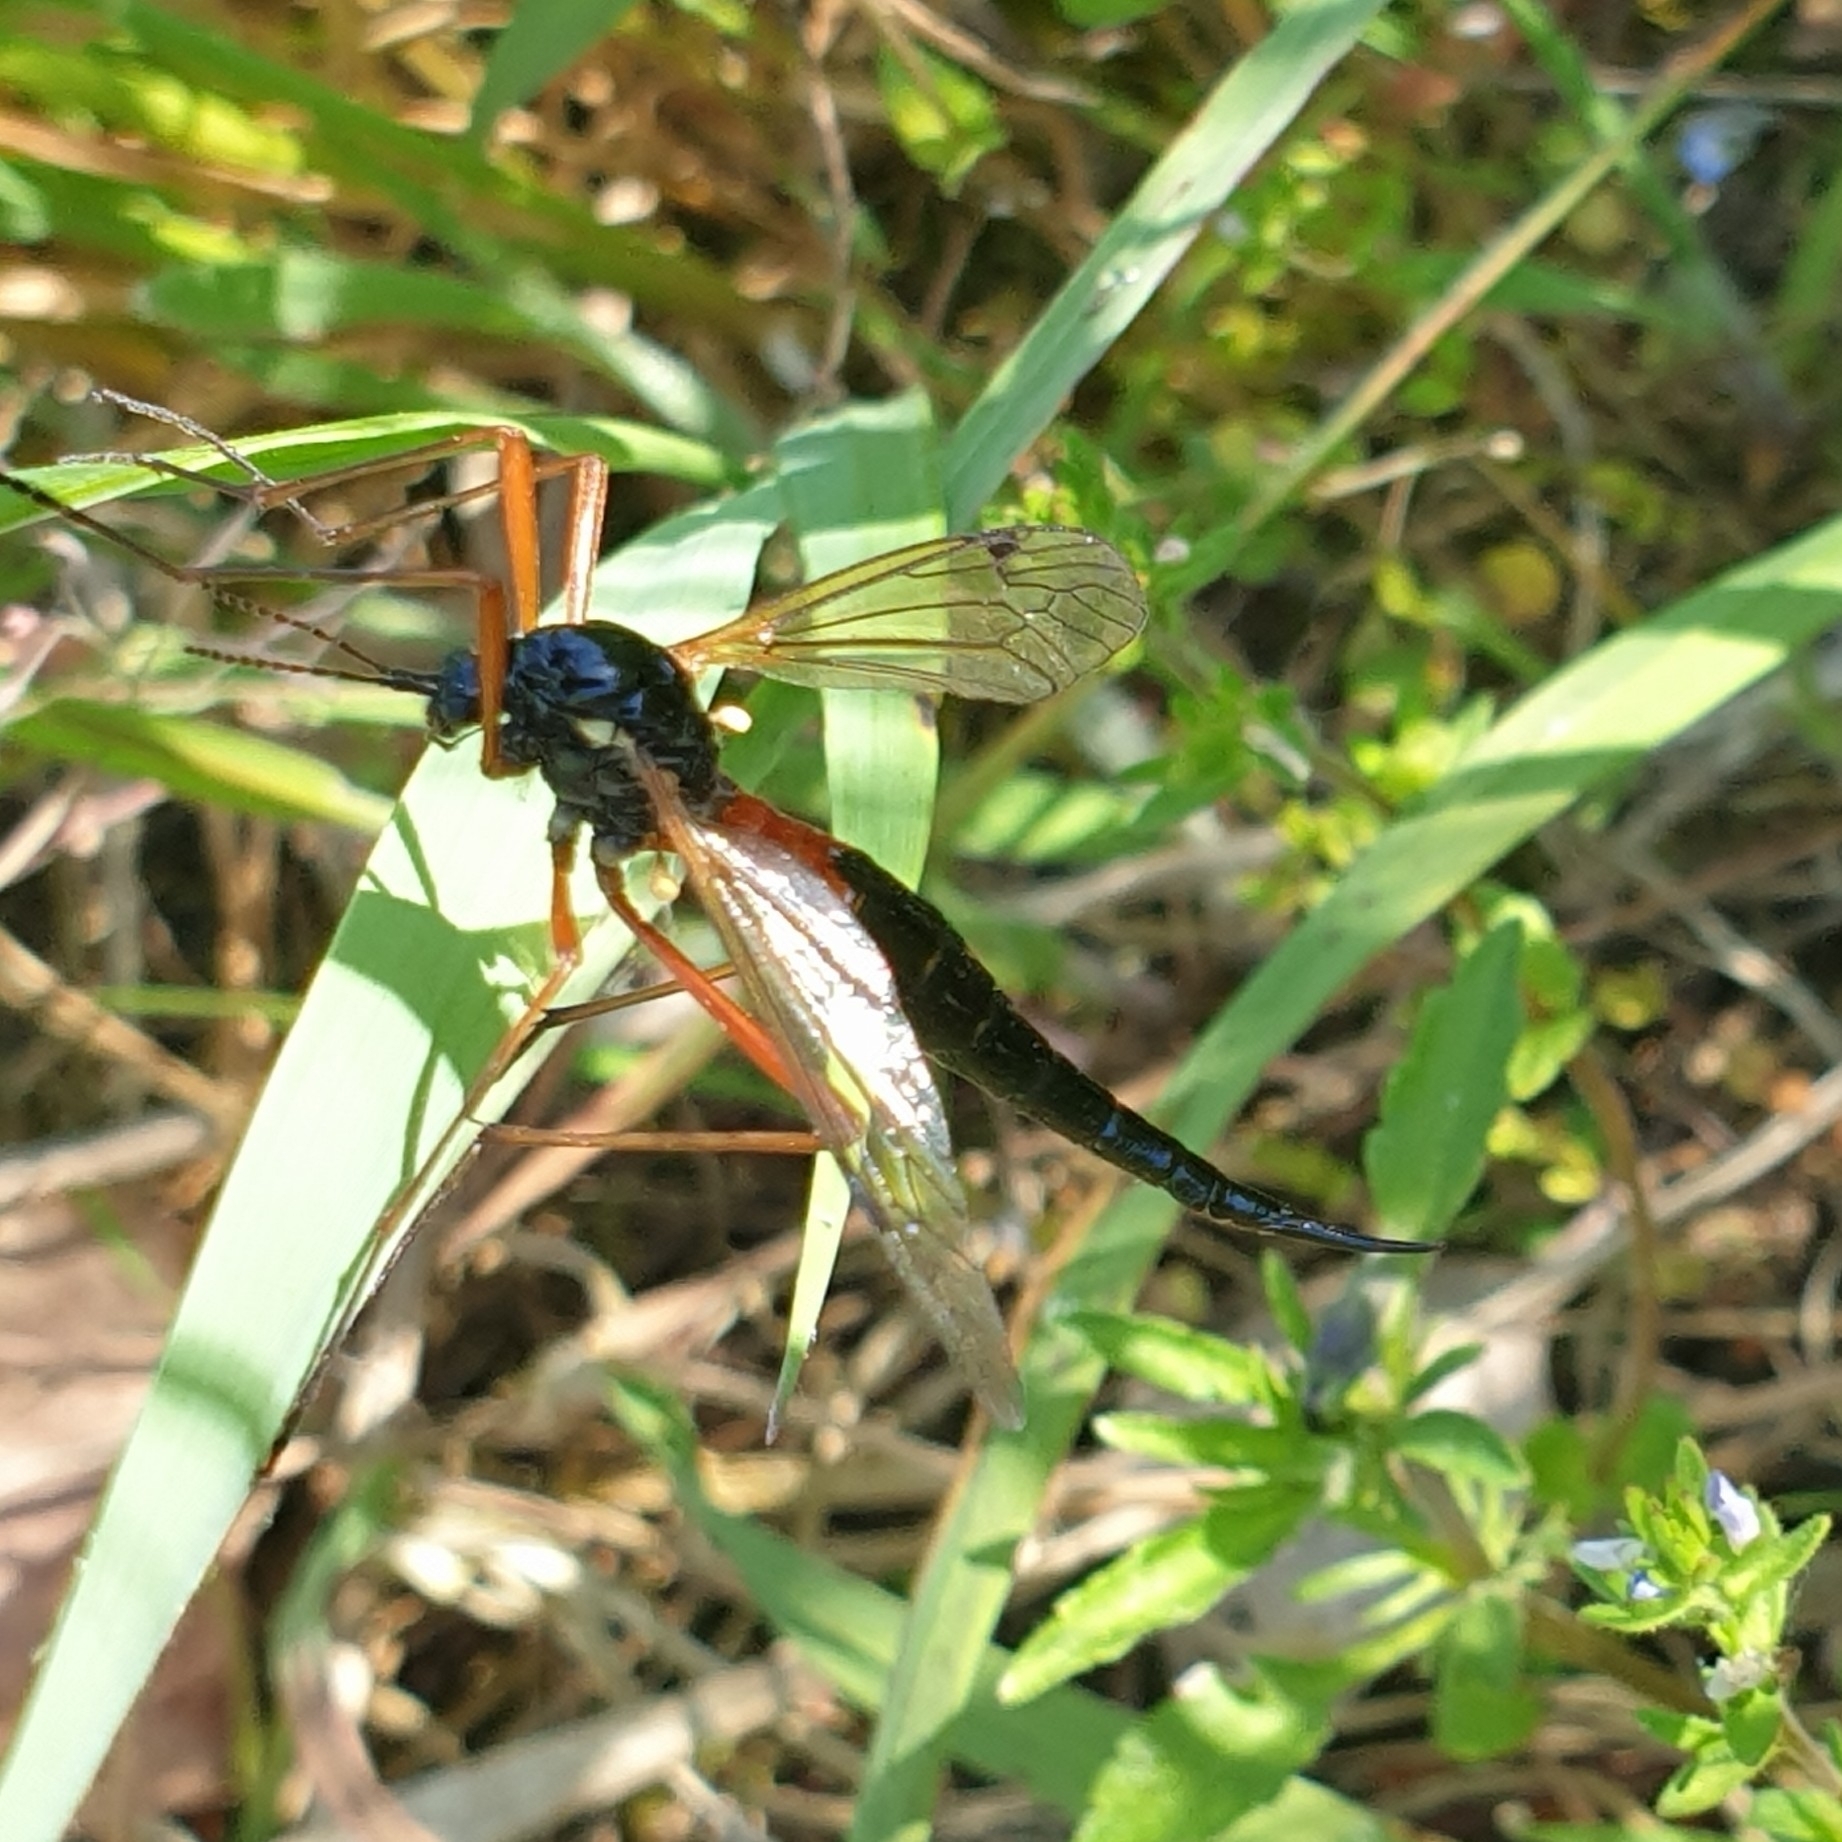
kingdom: Animalia
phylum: Arthropoda
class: Insecta
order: Diptera
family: Tipulidae
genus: Tanyptera
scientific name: Tanyptera atrata
